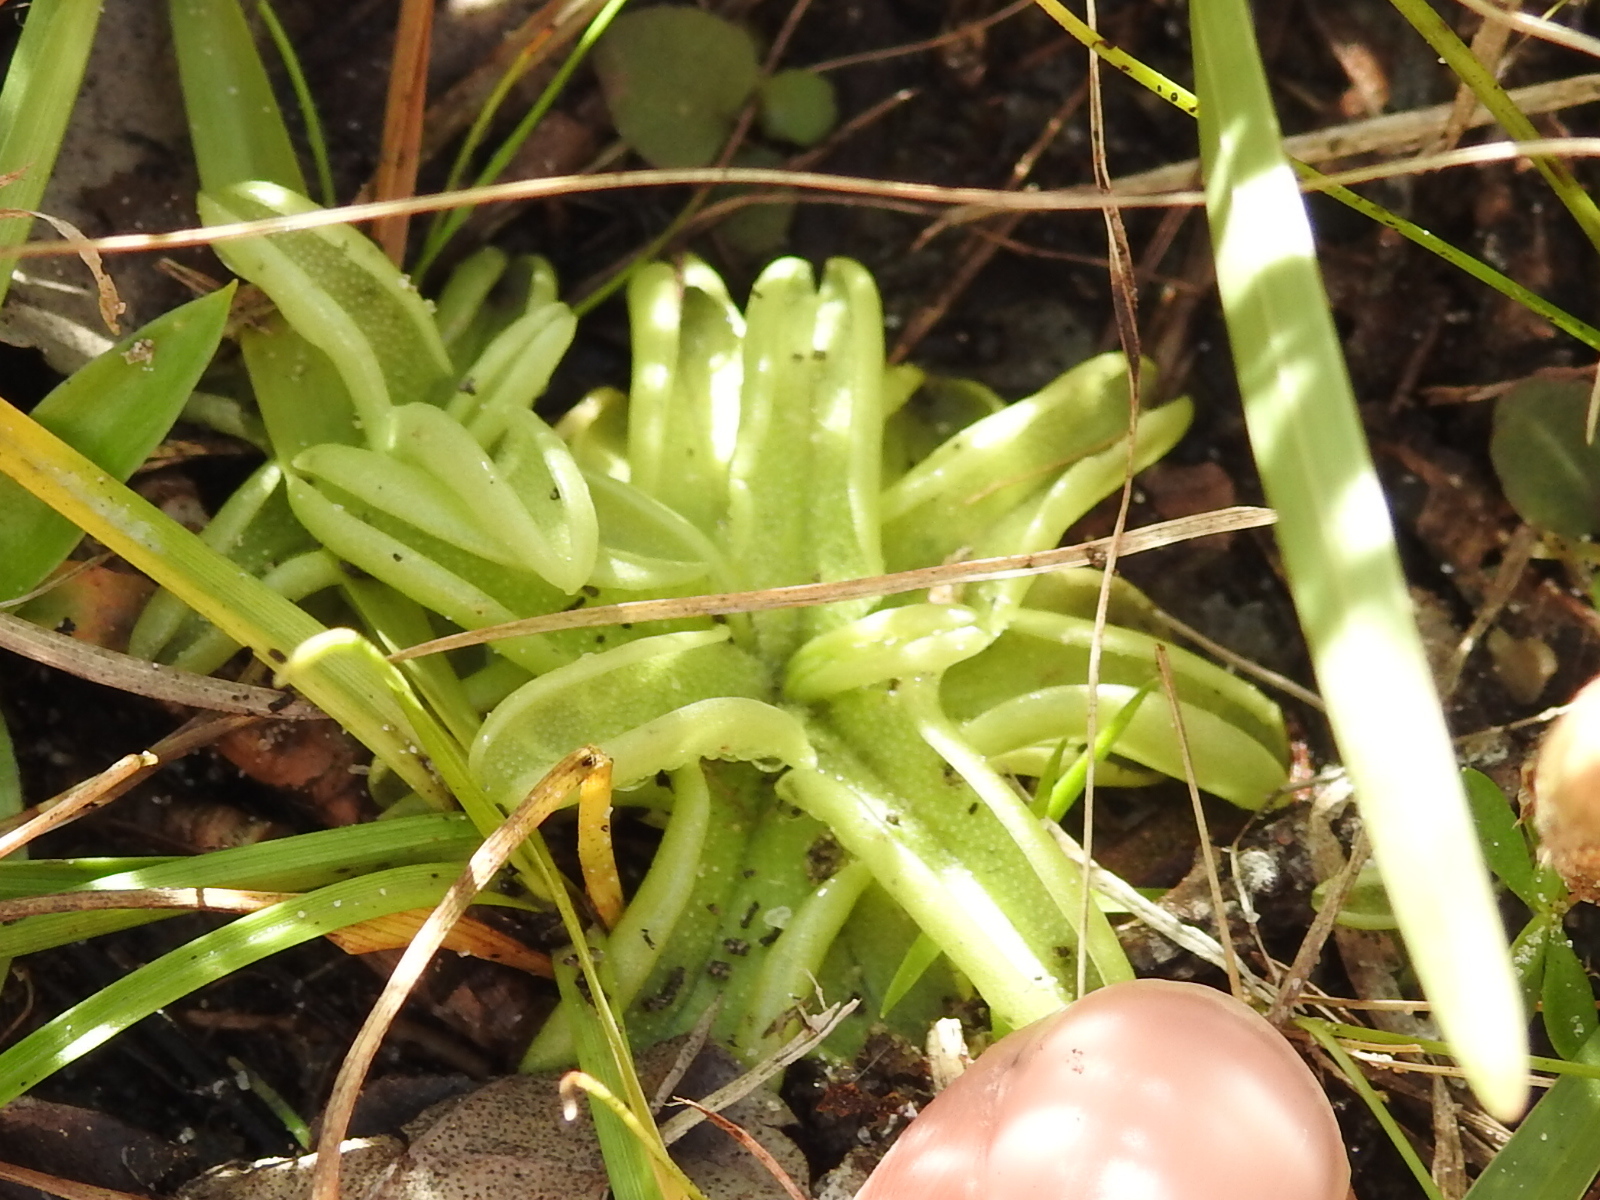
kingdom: Plantae
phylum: Tracheophyta
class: Magnoliopsida
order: Lamiales
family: Lentibulariaceae
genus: Pinguicula
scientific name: Pinguicula pumila
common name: Small butterwort
